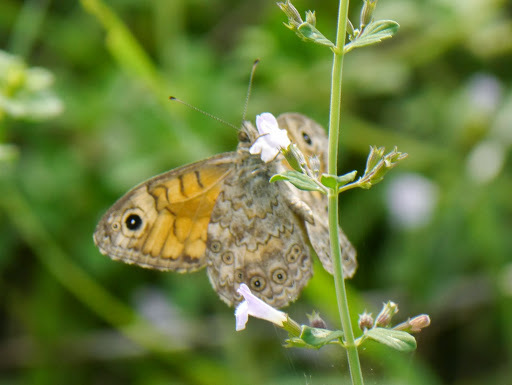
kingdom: Animalia
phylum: Arthropoda
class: Insecta
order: Lepidoptera
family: Nymphalidae
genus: Pararge
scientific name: Pararge Lasiommata megera
